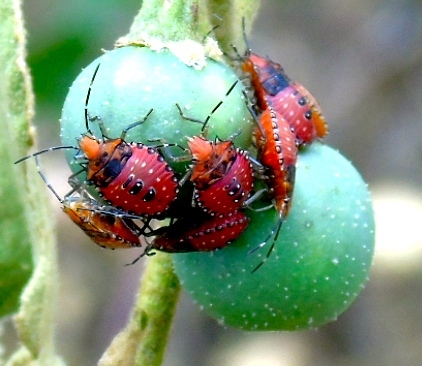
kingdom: Animalia
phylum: Arthropoda
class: Insecta
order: Hemiptera
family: Pentatomidae
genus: Arvelius
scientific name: Arvelius
